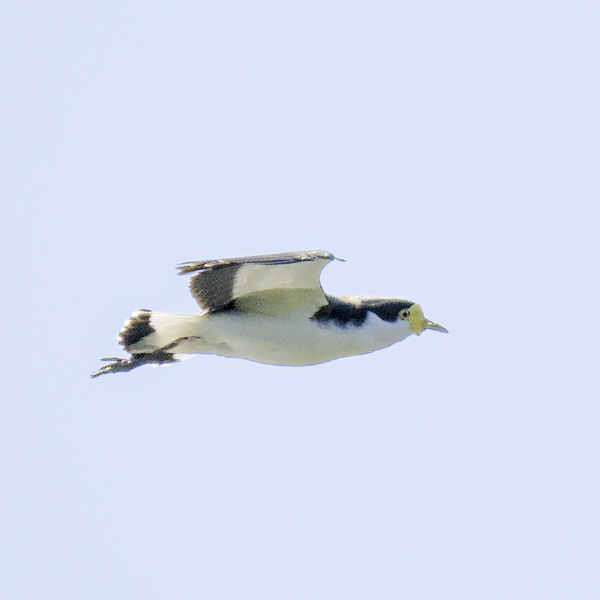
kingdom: Animalia
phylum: Chordata
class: Aves
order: Charadriiformes
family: Charadriidae
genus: Vanellus
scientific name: Vanellus miles
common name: Masked lapwing
